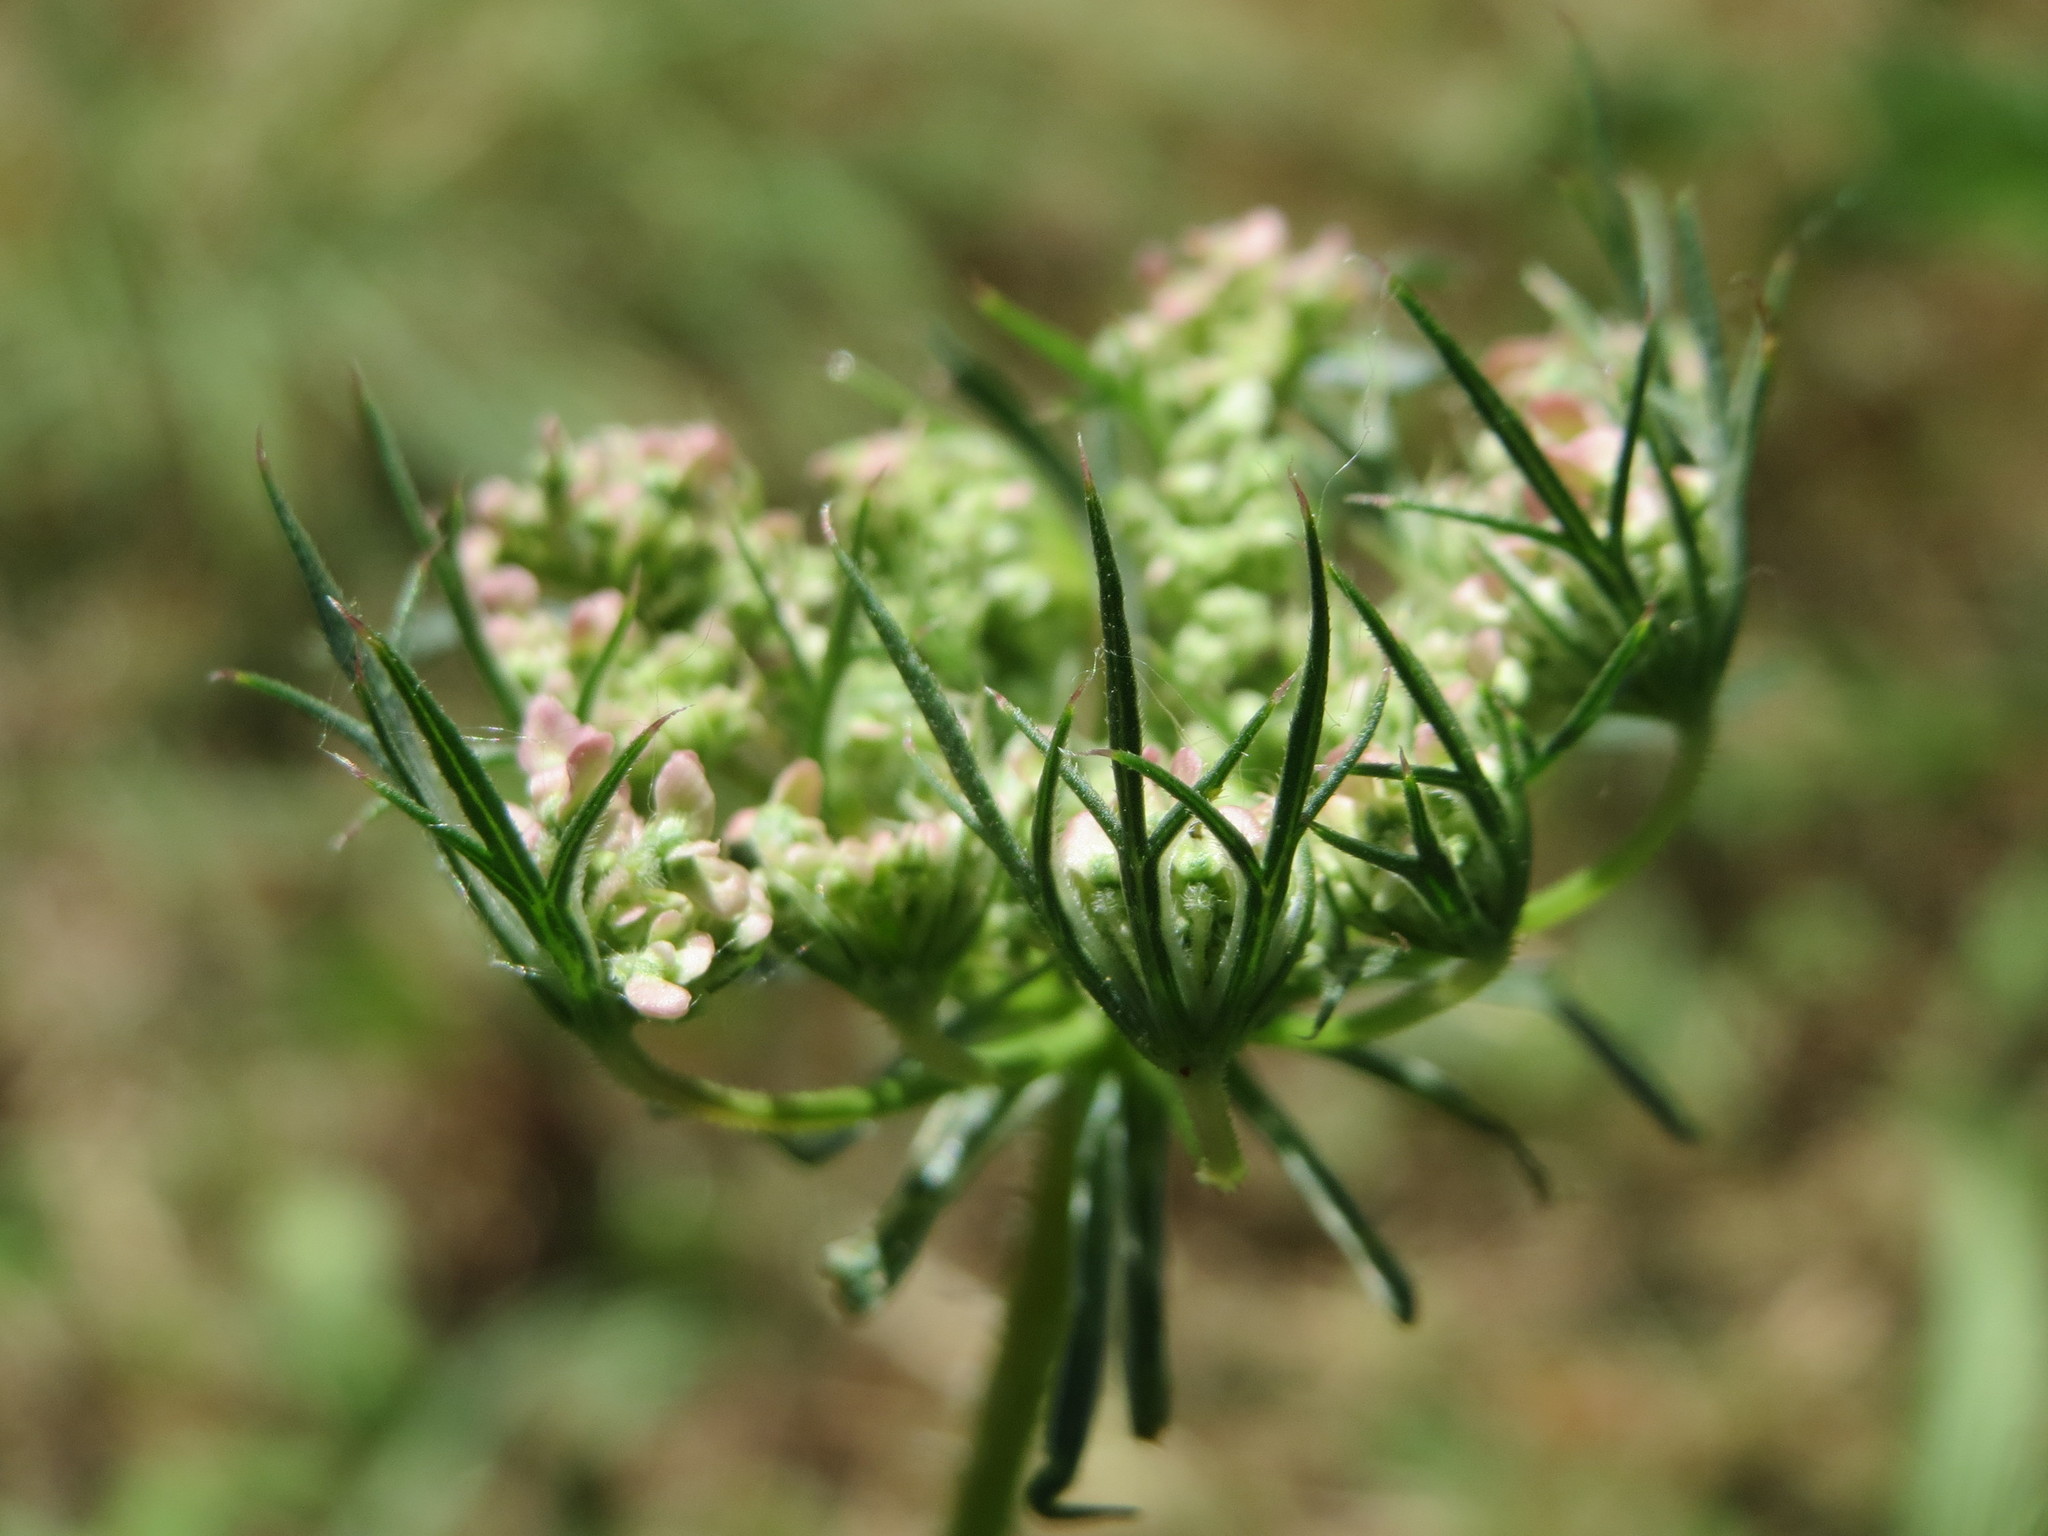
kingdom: Plantae
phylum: Tracheophyta
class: Magnoliopsida
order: Apiales
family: Apiaceae
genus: Daucus
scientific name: Daucus carota
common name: Wild carrot
